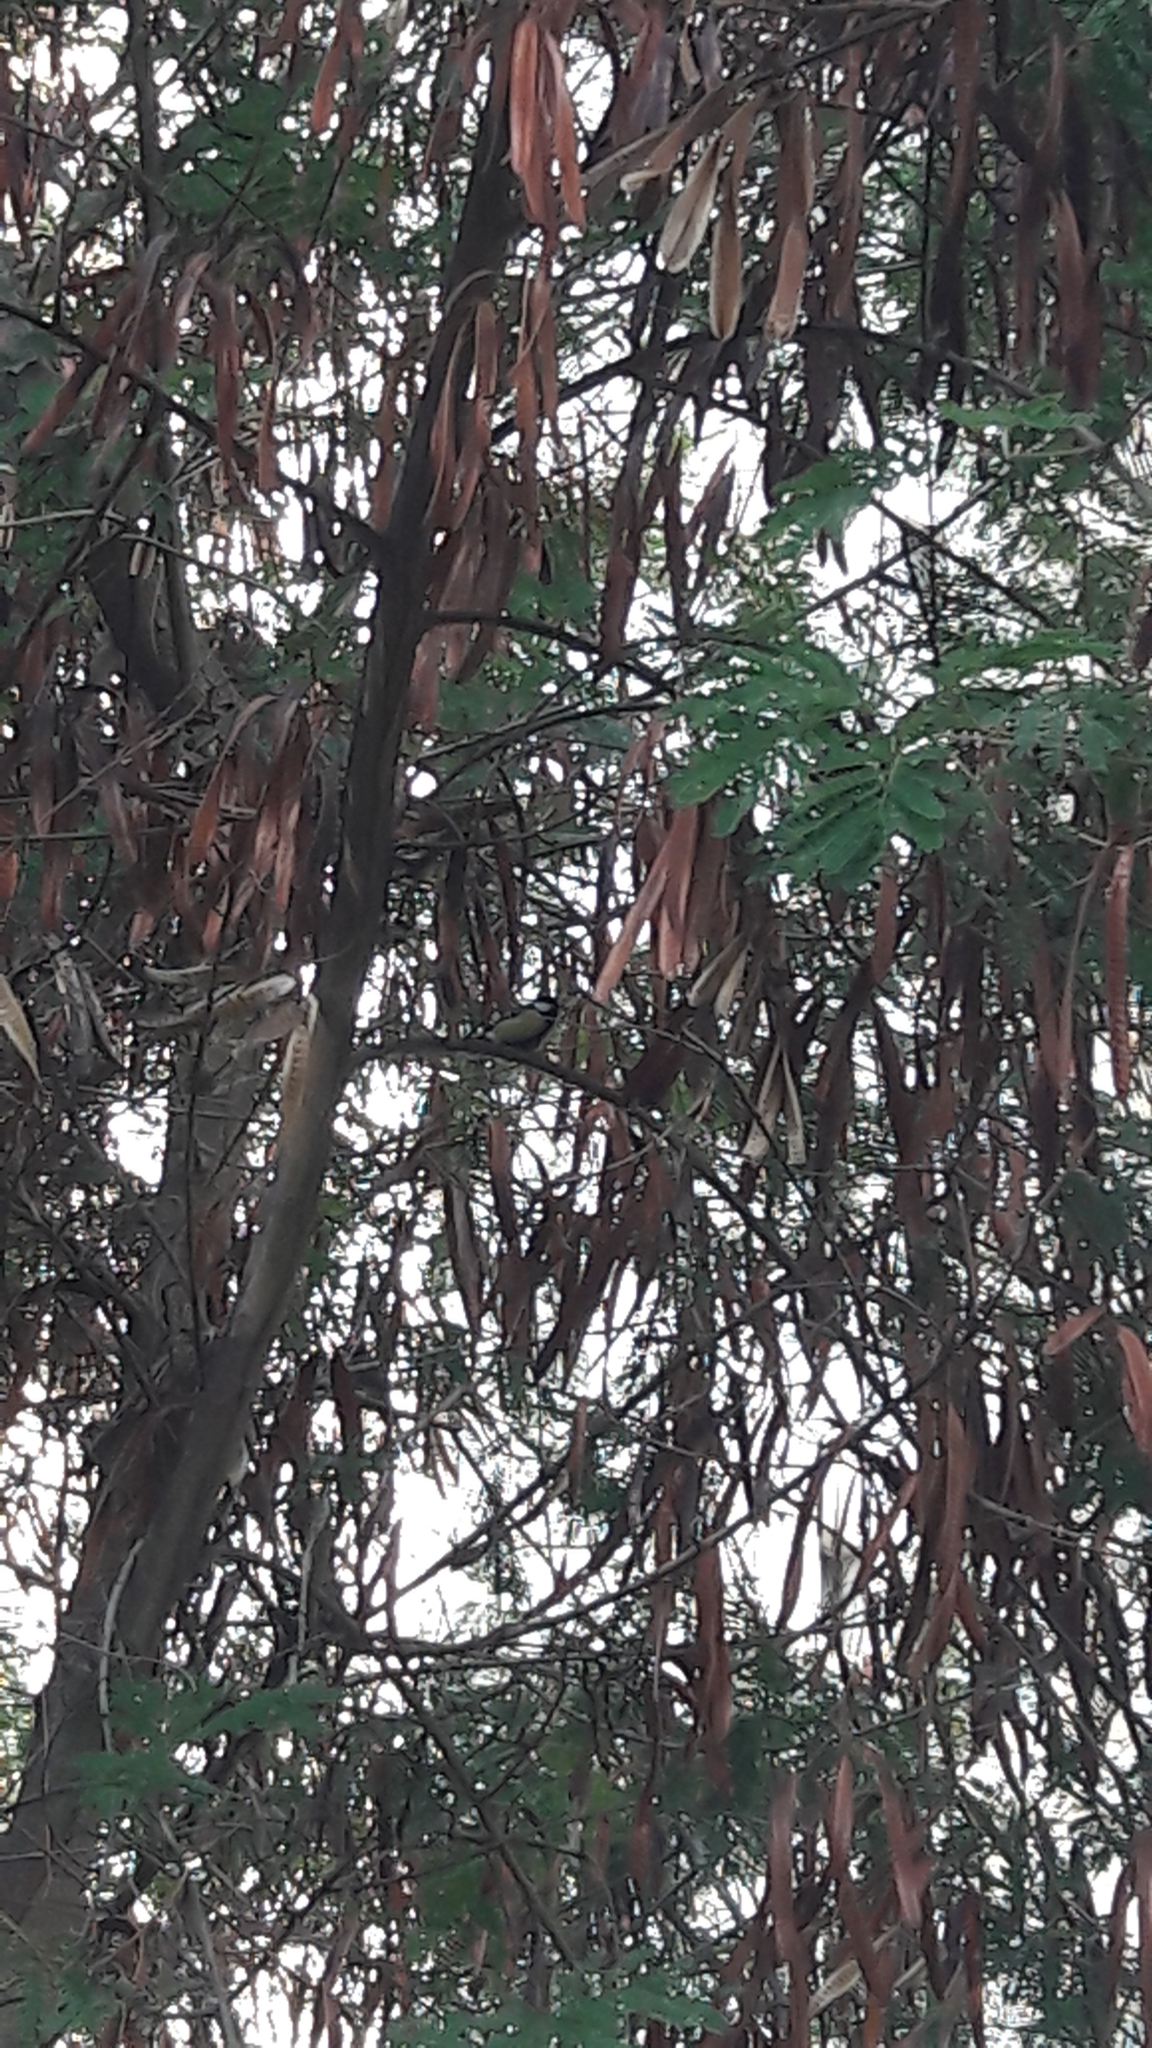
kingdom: Animalia
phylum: Chordata
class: Aves
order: Passeriformes
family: Paridae
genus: Parus
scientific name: Parus major
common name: Great tit
